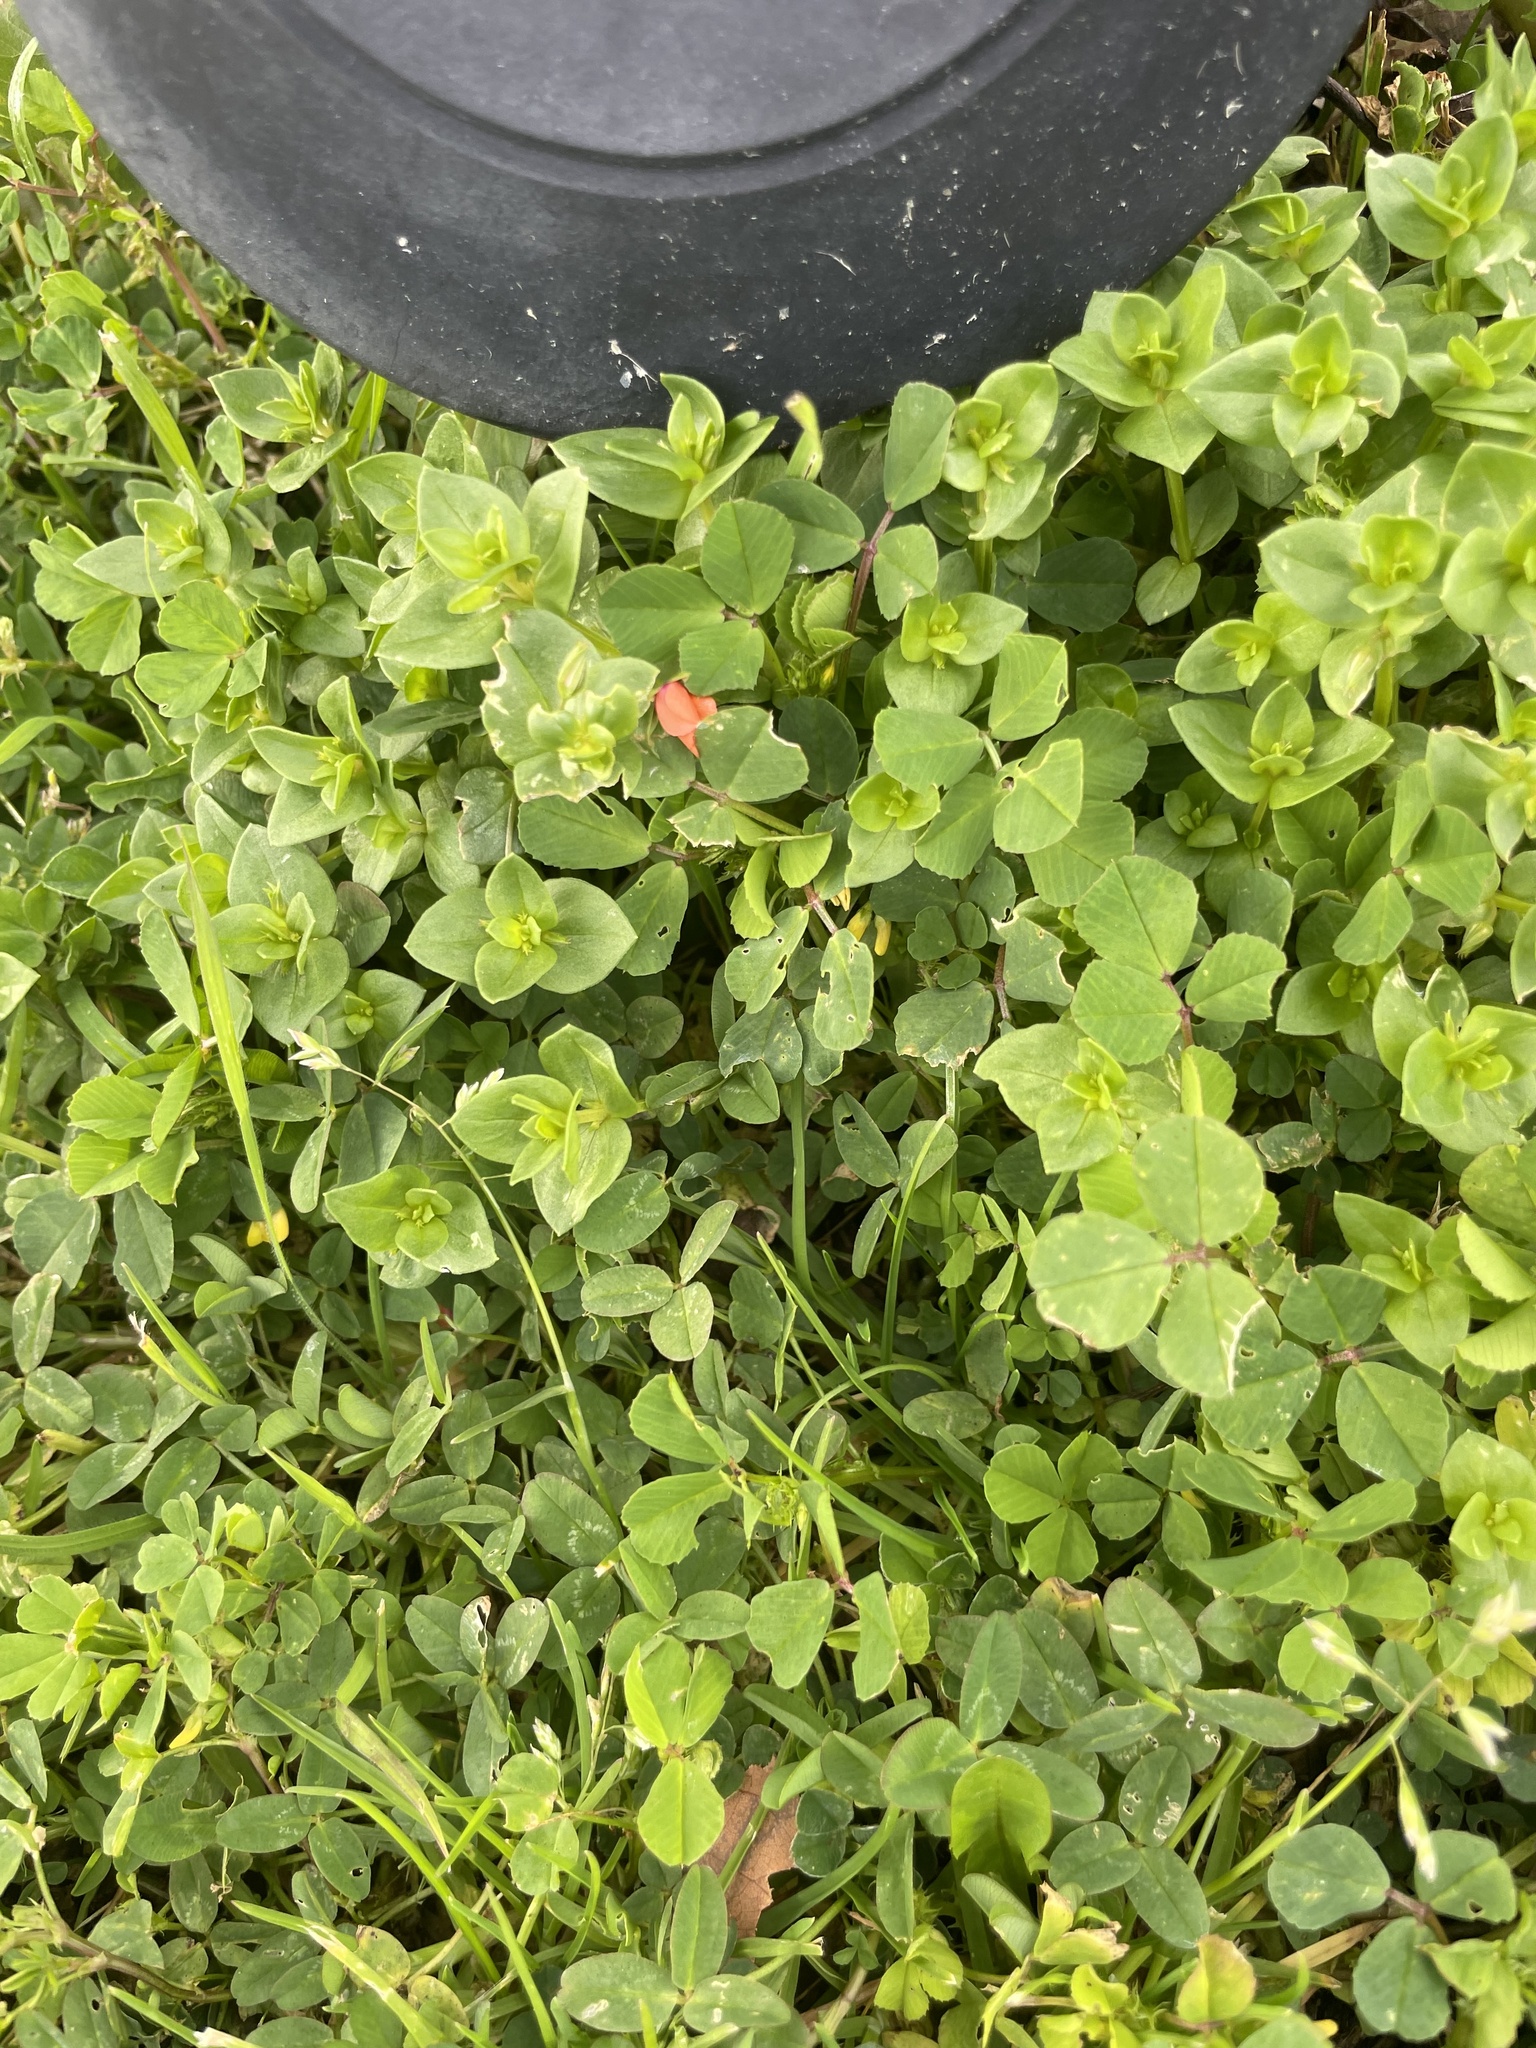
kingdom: Plantae
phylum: Tracheophyta
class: Magnoliopsida
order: Ericales
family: Primulaceae
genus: Lysimachia
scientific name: Lysimachia arvensis
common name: Scarlet pimpernel
